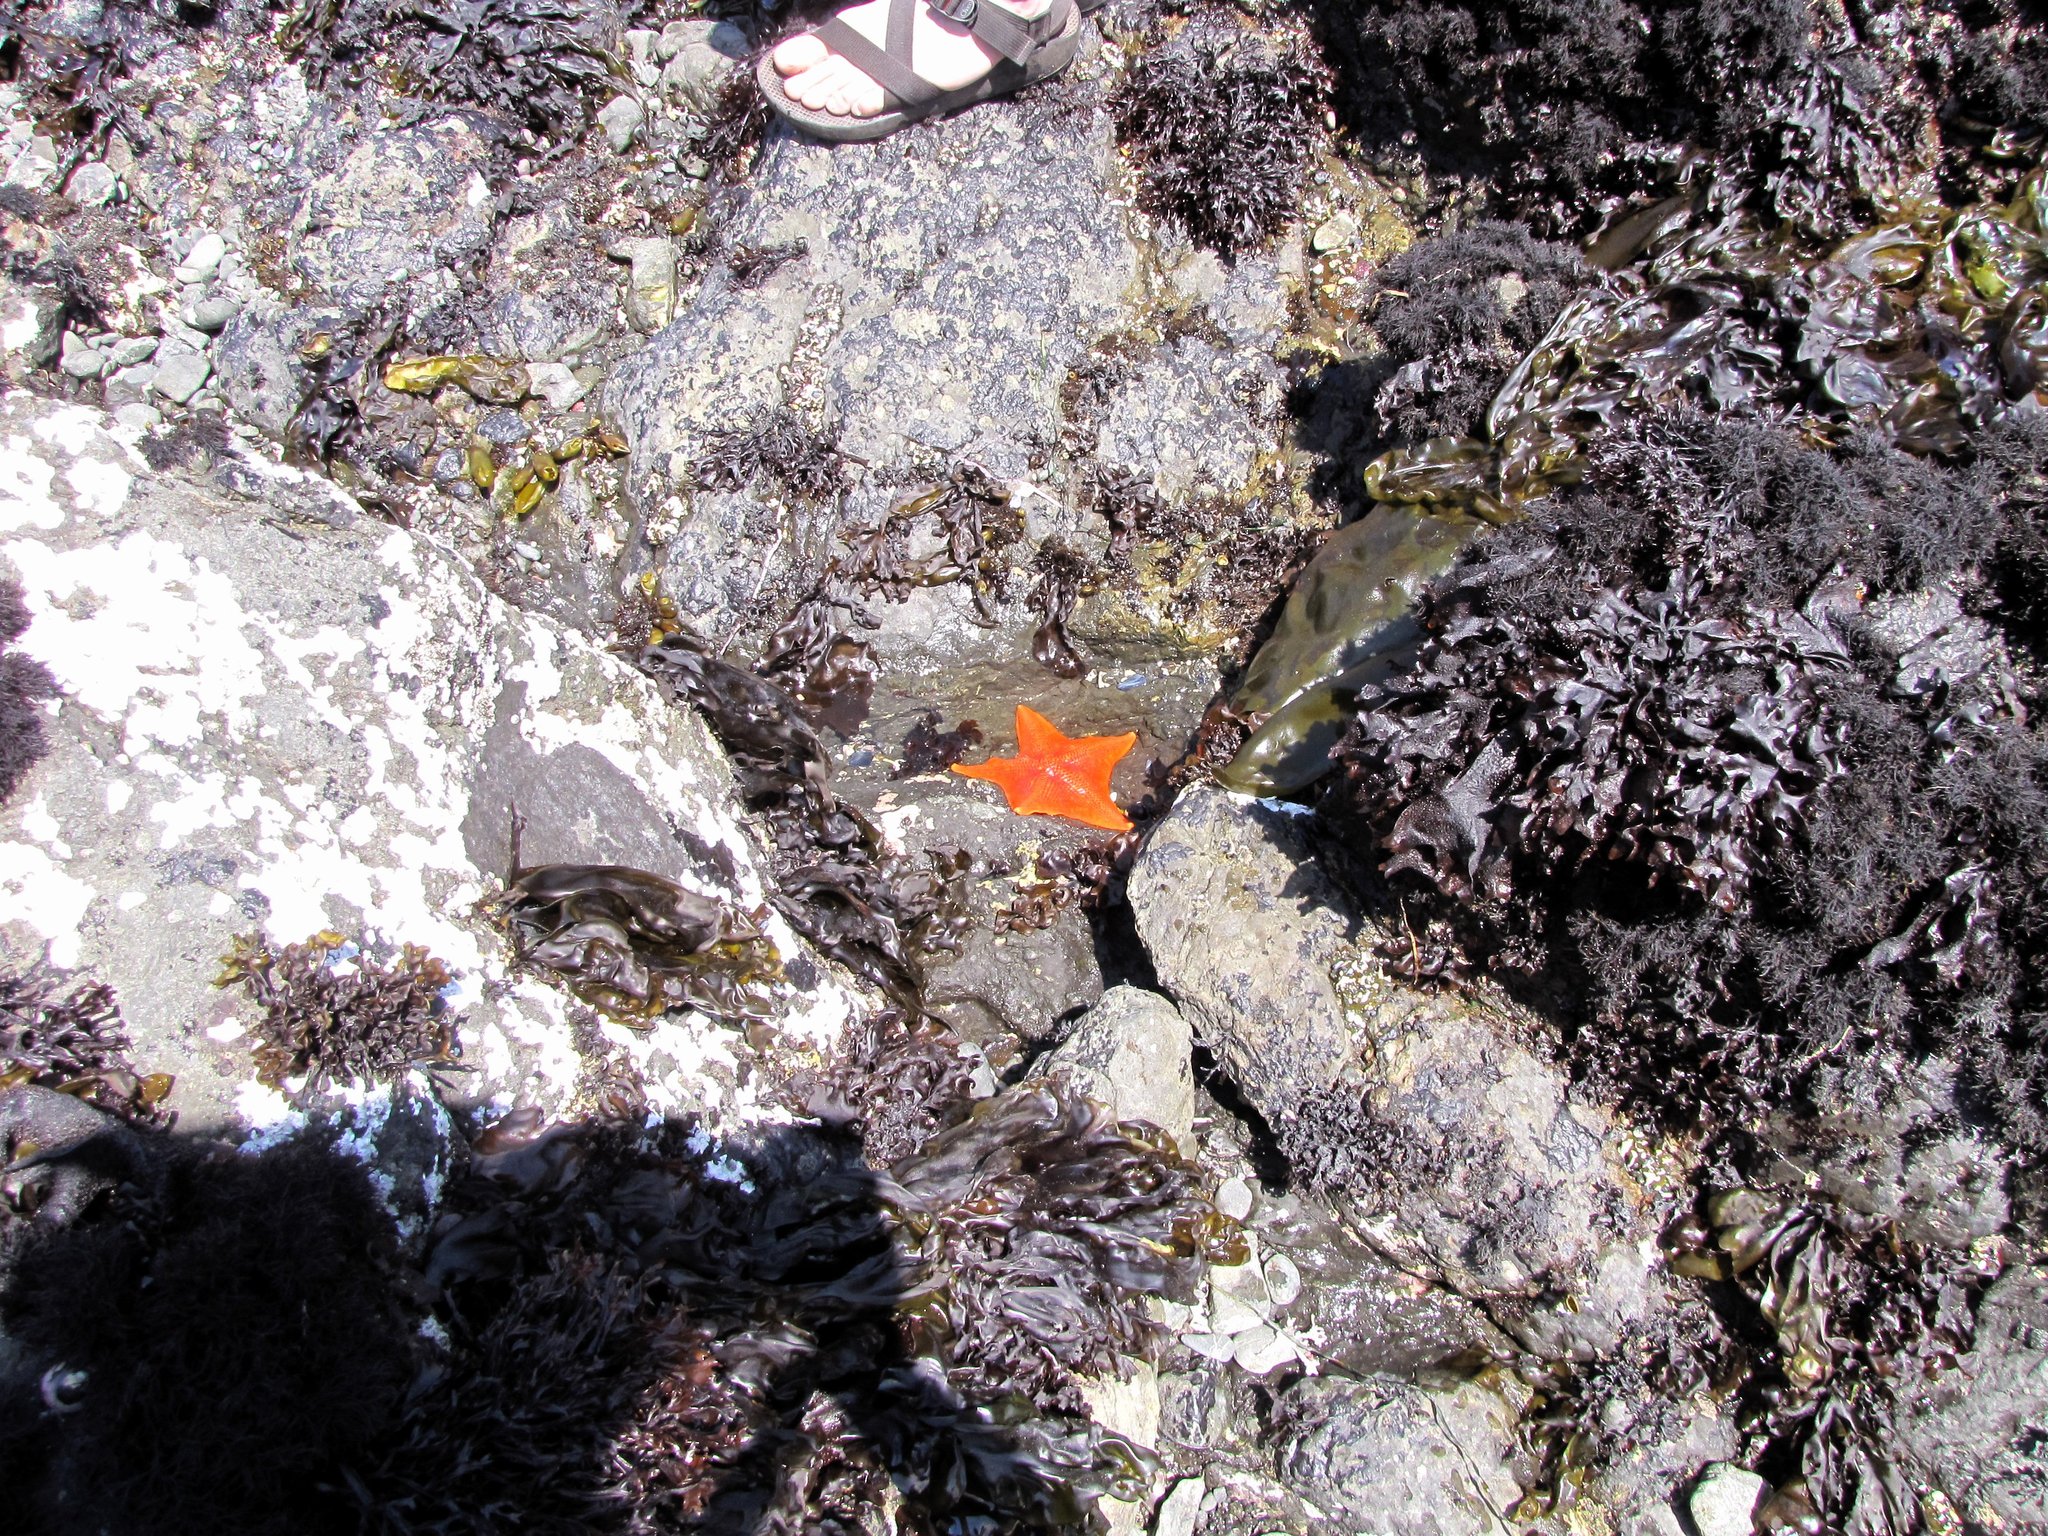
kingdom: Animalia
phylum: Echinodermata
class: Asteroidea
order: Valvatida
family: Asterinidae
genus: Patiria
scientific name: Patiria miniata
